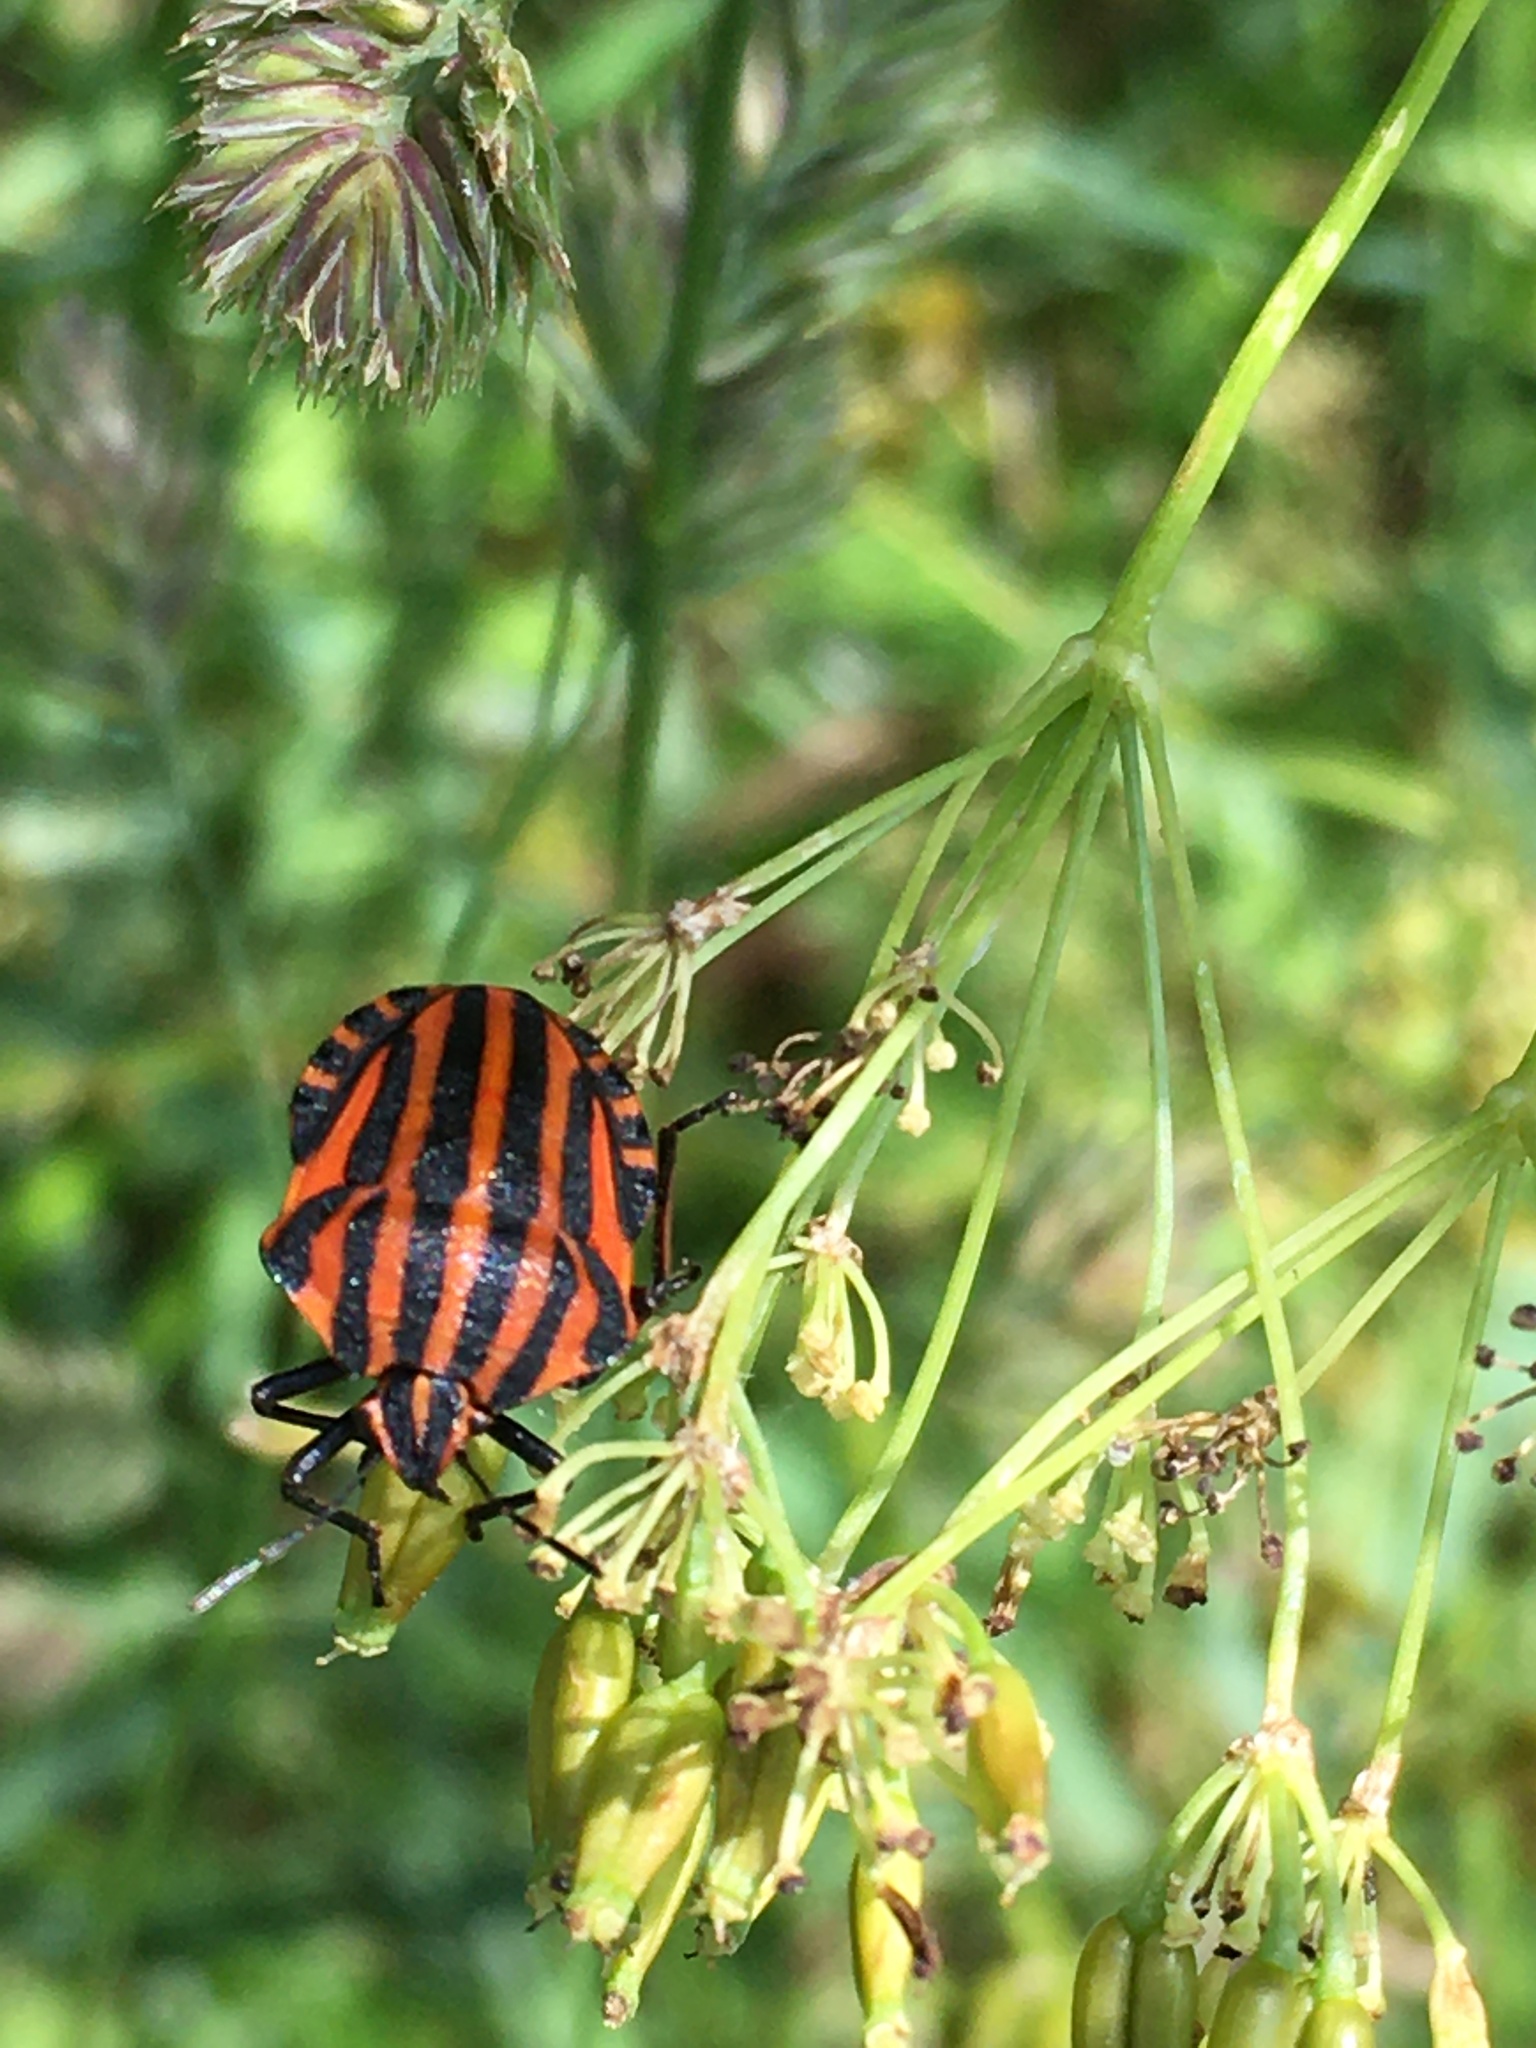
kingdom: Animalia
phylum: Arthropoda
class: Insecta
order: Hemiptera
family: Pentatomidae
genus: Graphosoma
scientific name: Graphosoma italicum
